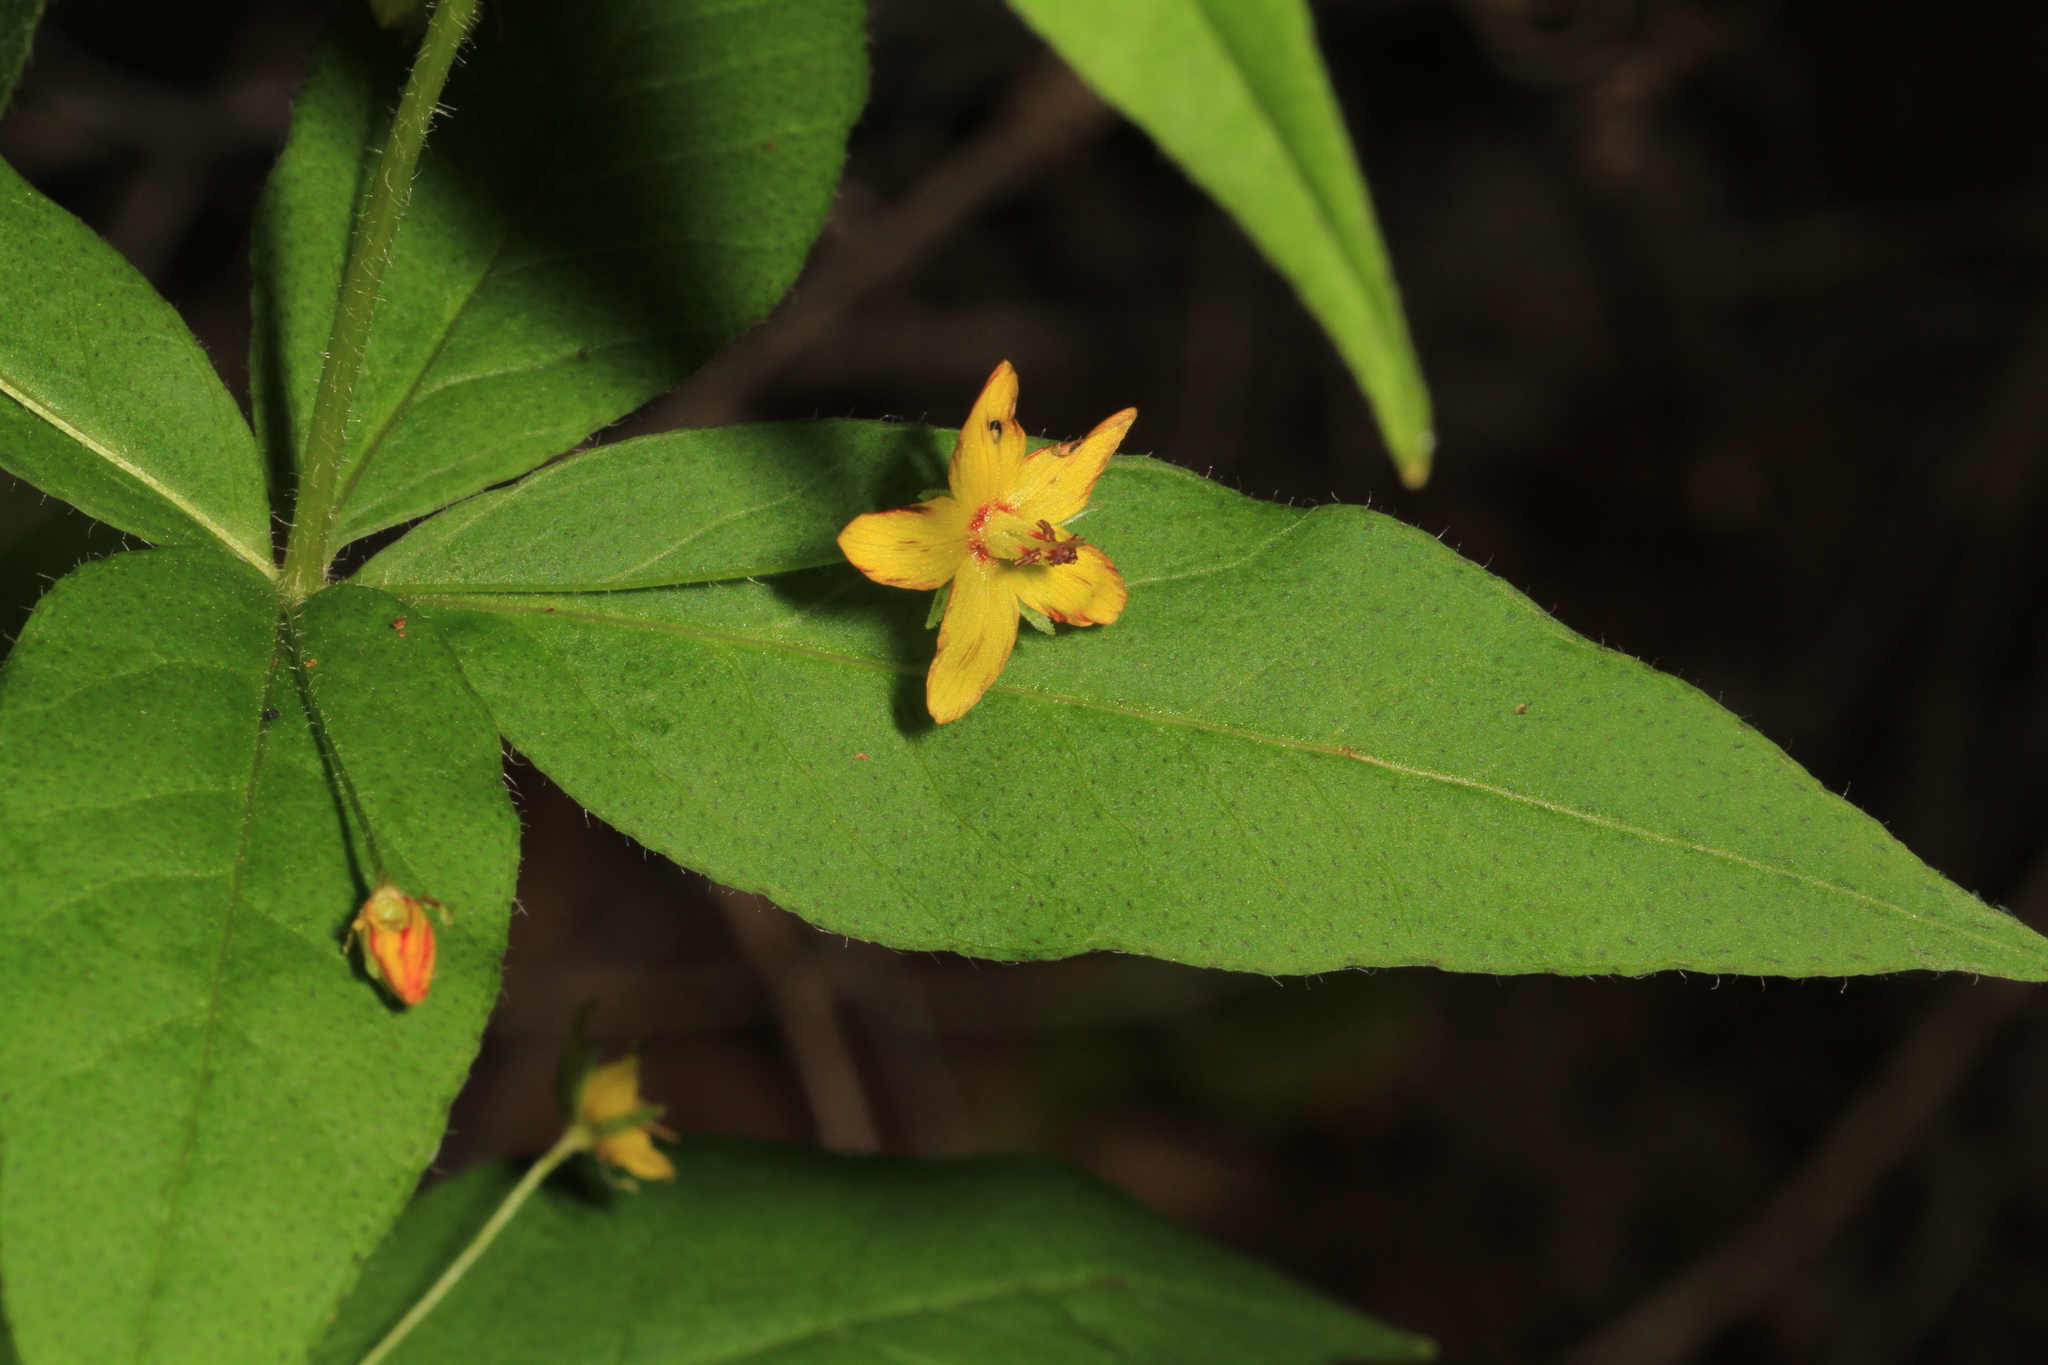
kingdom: Plantae
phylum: Tracheophyta
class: Magnoliopsida
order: Ericales
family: Primulaceae
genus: Lysimachia
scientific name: Lysimachia quadrifolia
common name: Whorled loosestrife
